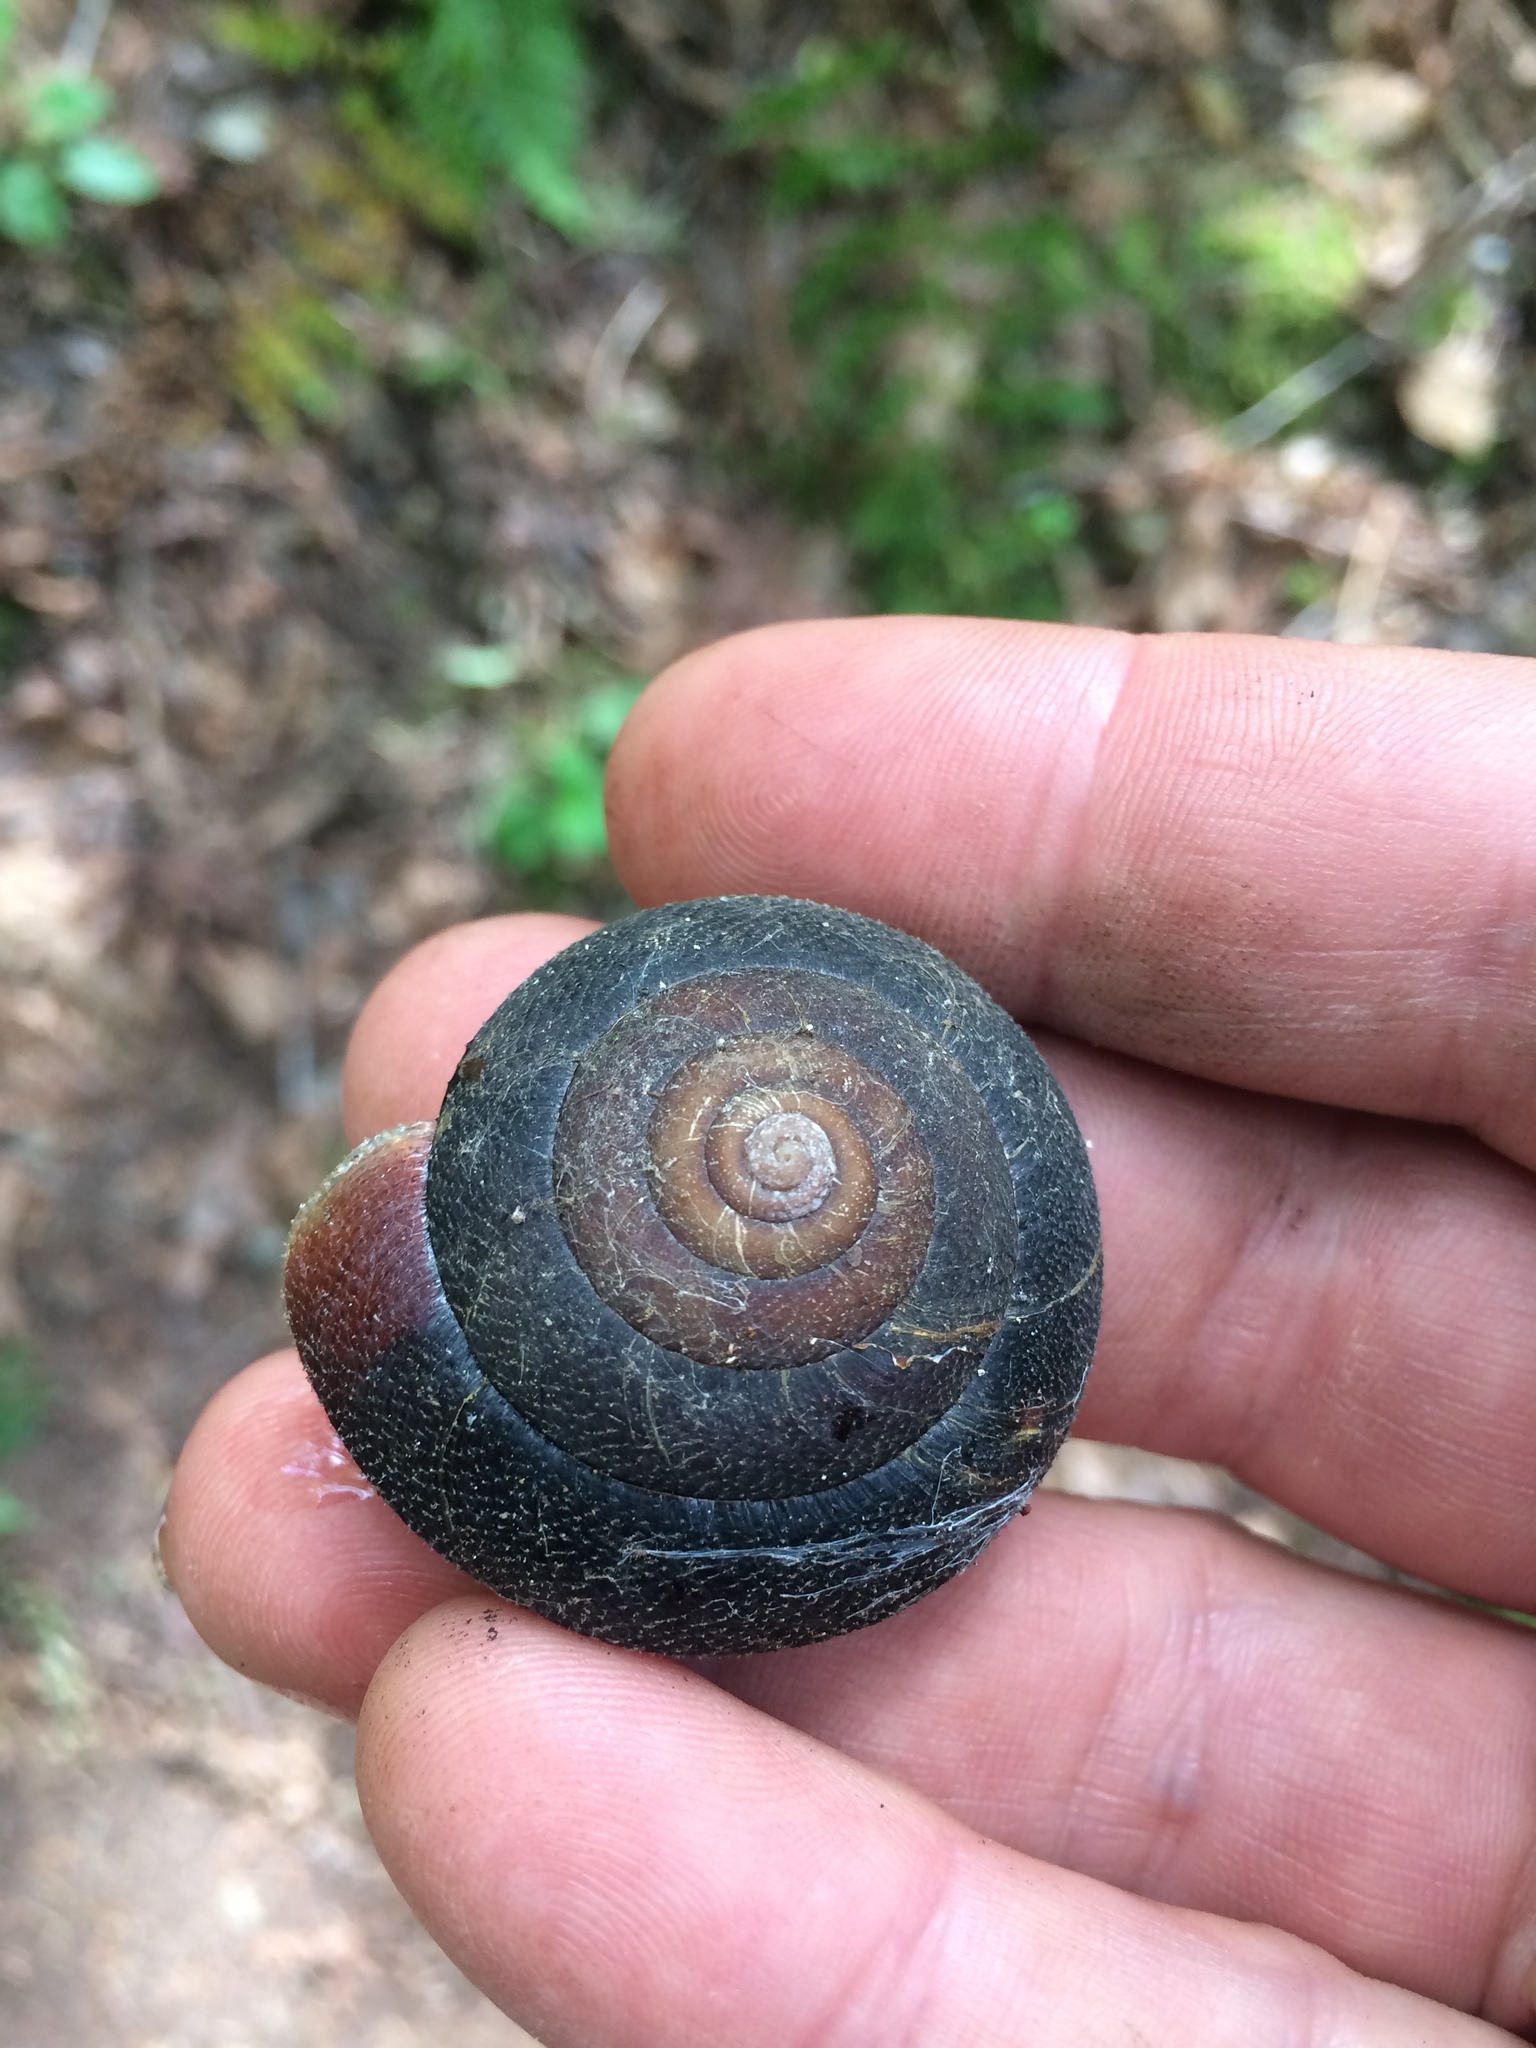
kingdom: Animalia
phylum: Mollusca
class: Gastropoda
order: Stylommatophora
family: Xanthonychidae
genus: Monadenia
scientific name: Monadenia infumata
